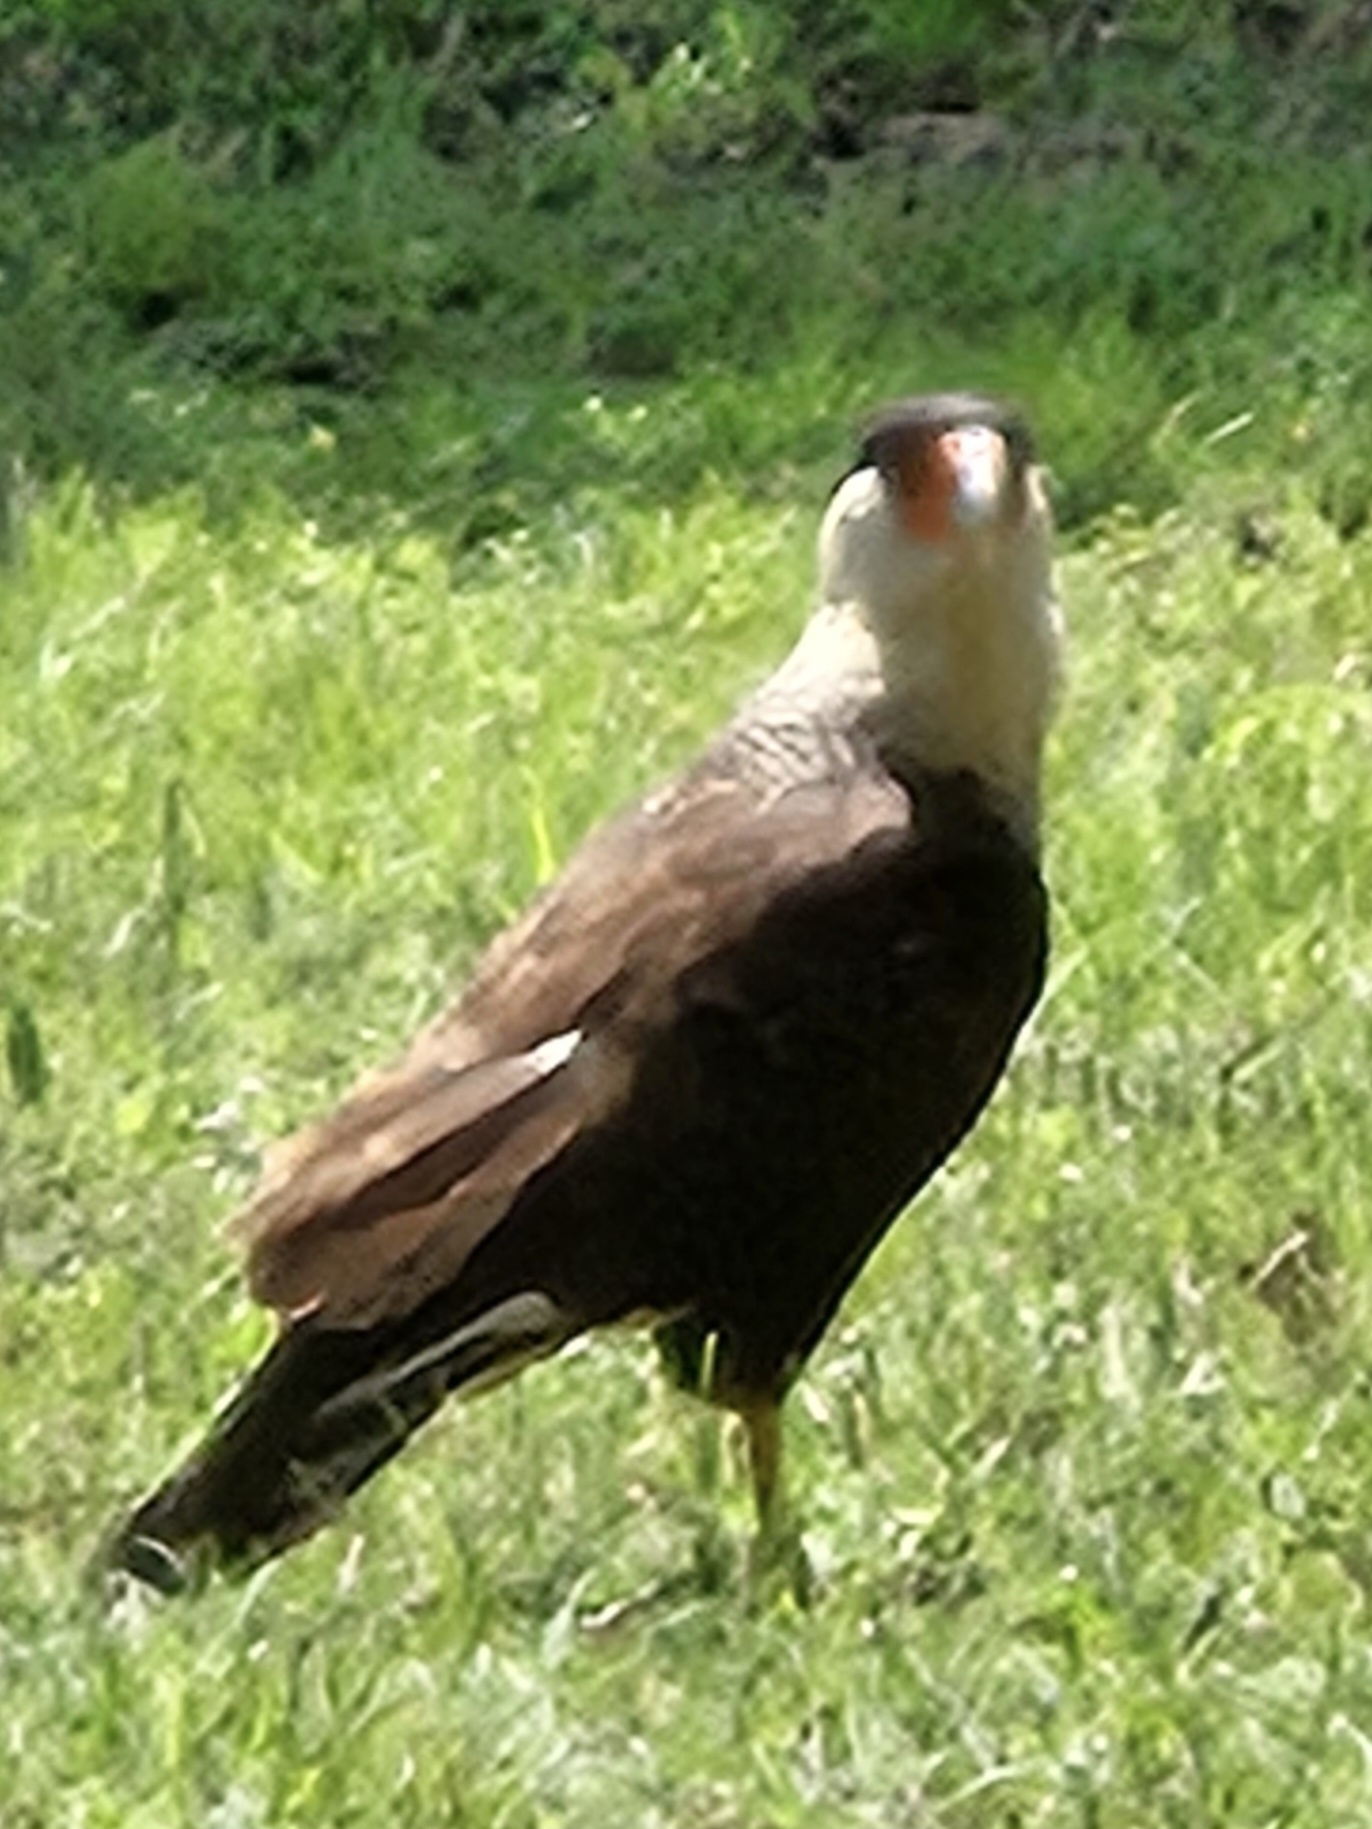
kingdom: Animalia
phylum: Chordata
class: Aves
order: Falconiformes
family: Falconidae
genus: Caracara
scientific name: Caracara plancus
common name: Southern caracara
